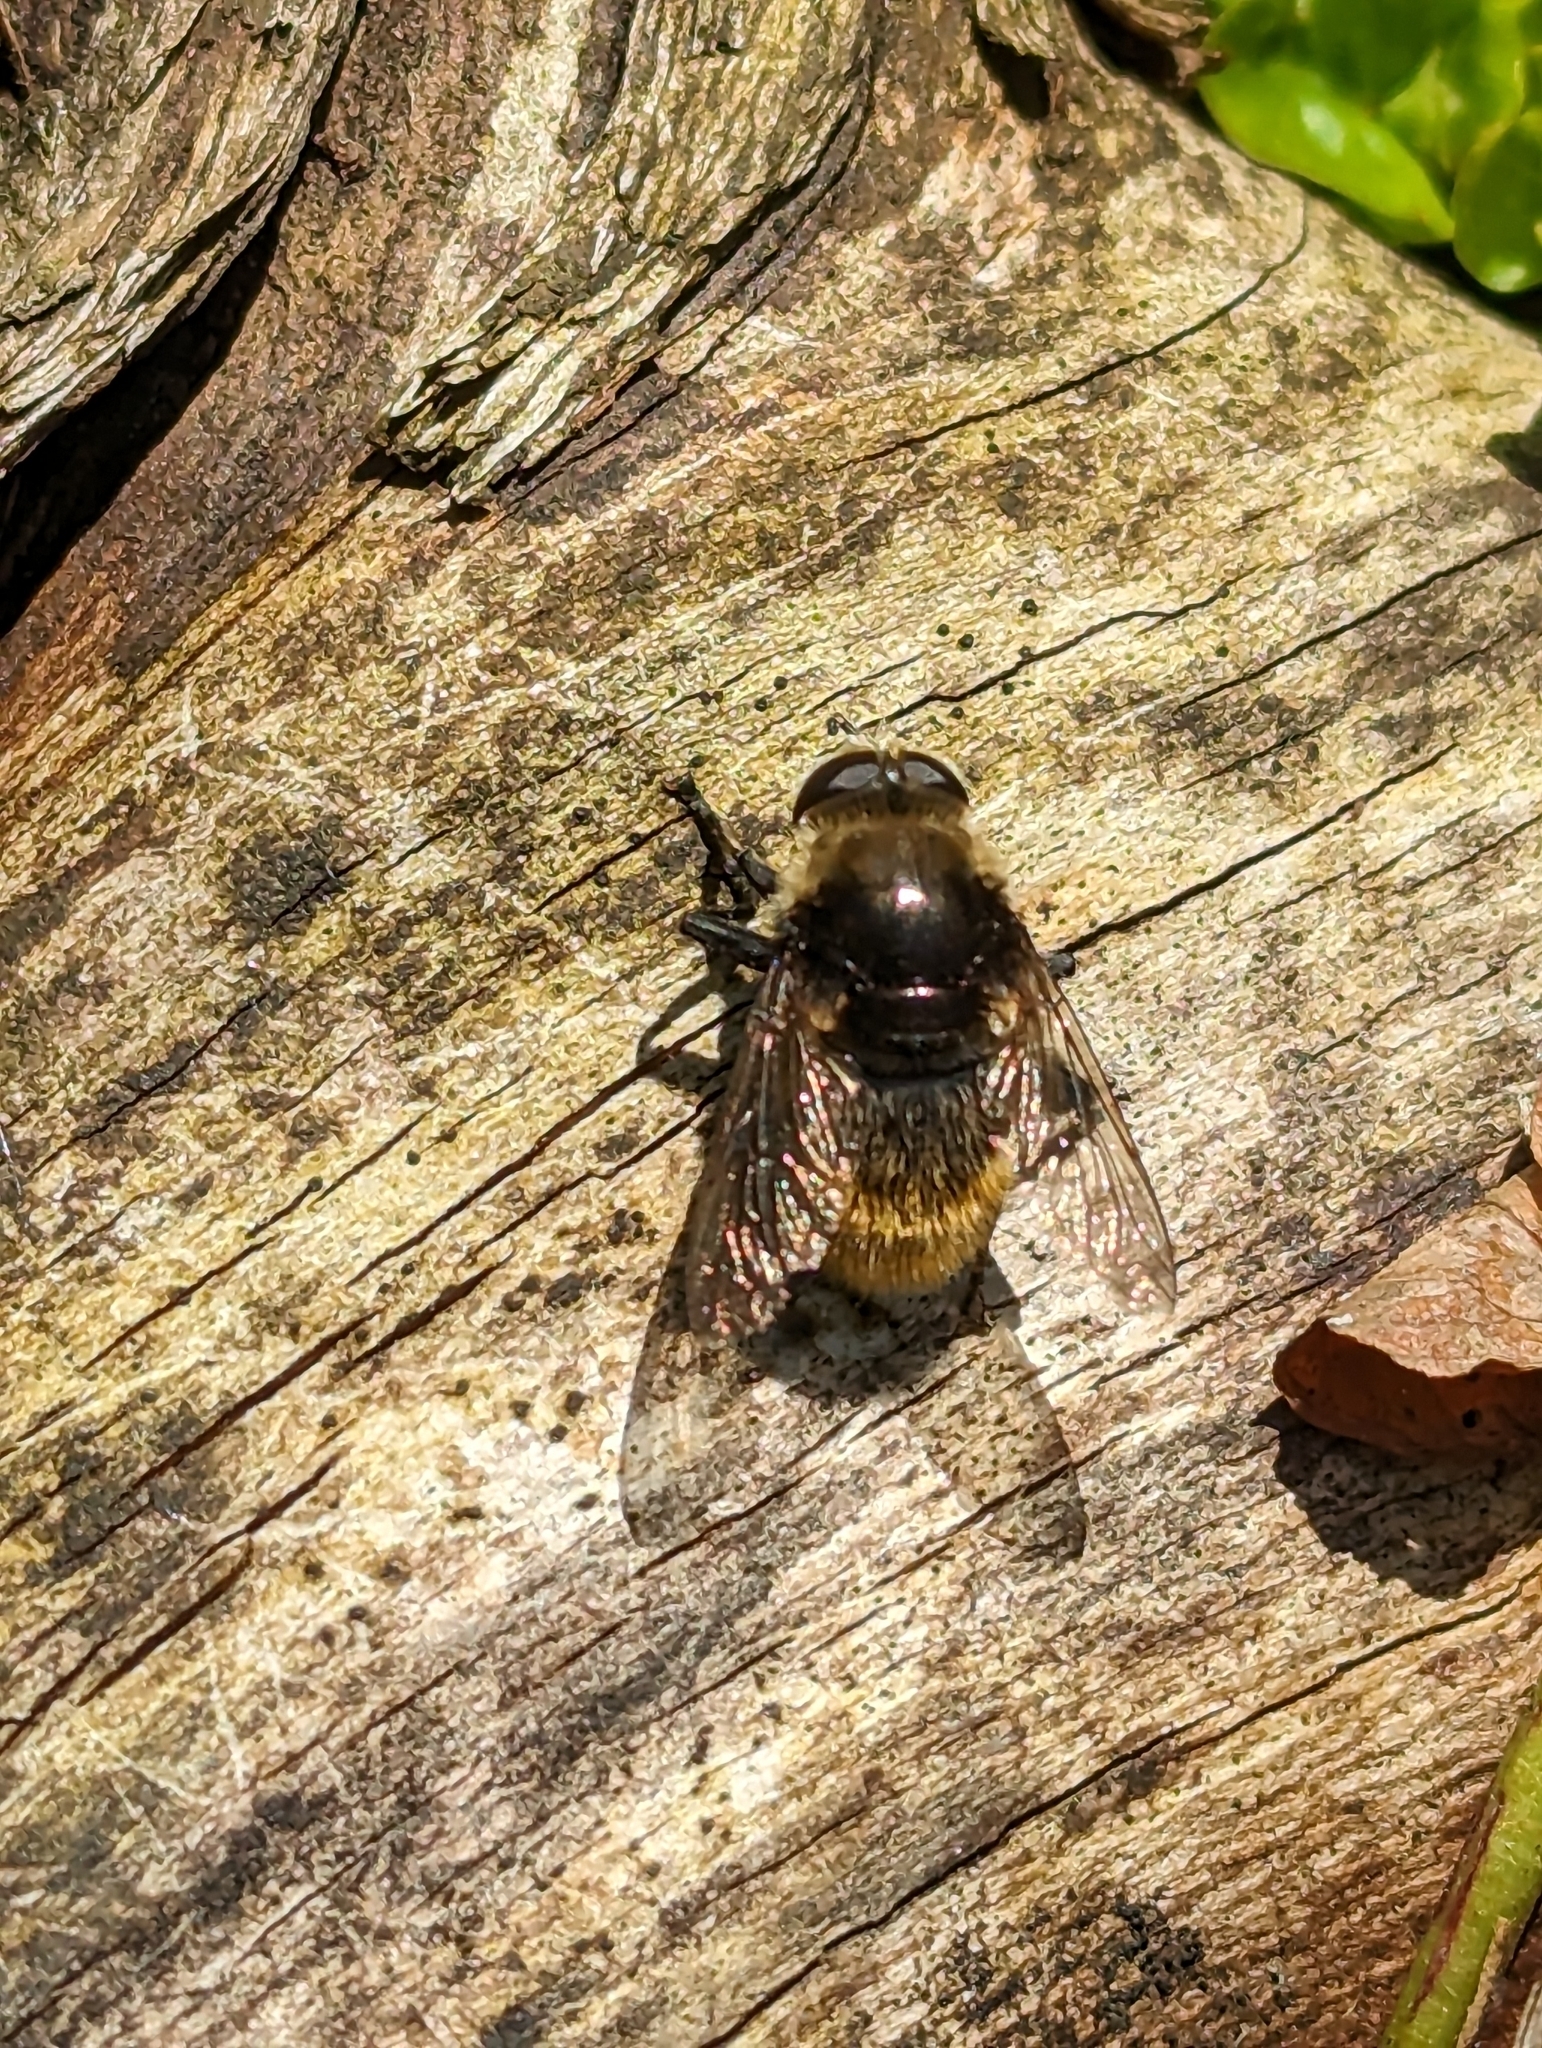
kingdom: Animalia
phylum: Arthropoda
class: Insecta
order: Diptera
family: Syrphidae
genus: Merodon
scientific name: Merodon equestris
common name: Greater bulb-fly
